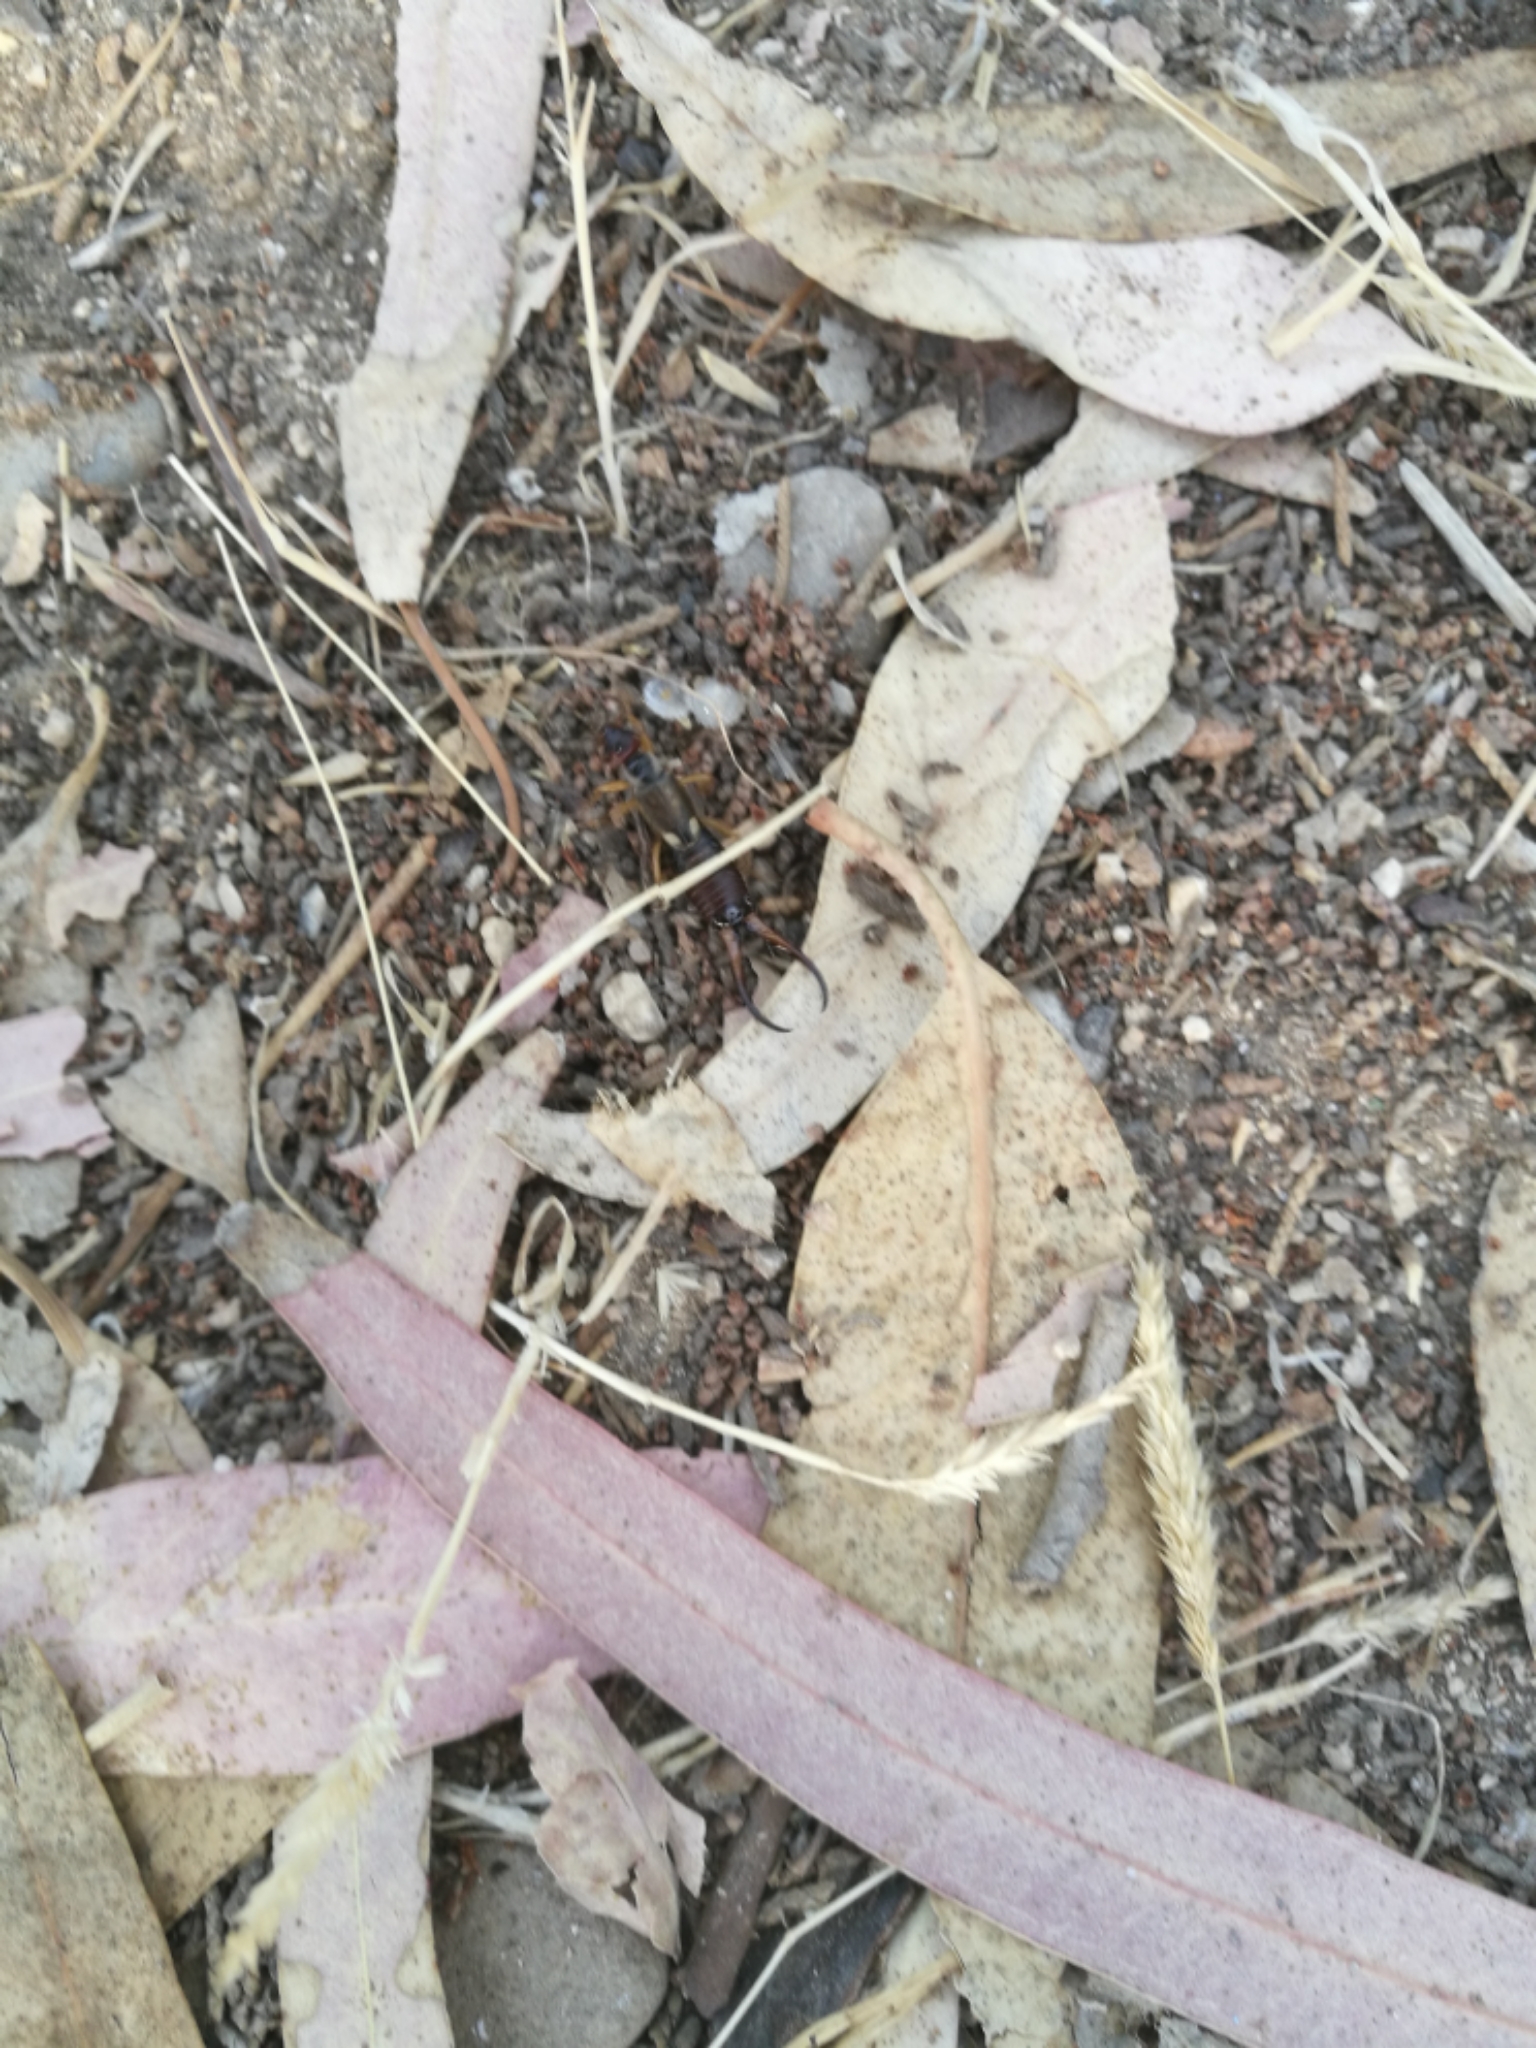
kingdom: Animalia
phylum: Arthropoda
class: Insecta
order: Dermaptera
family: Forficulidae
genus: Forficula
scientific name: Forficula
